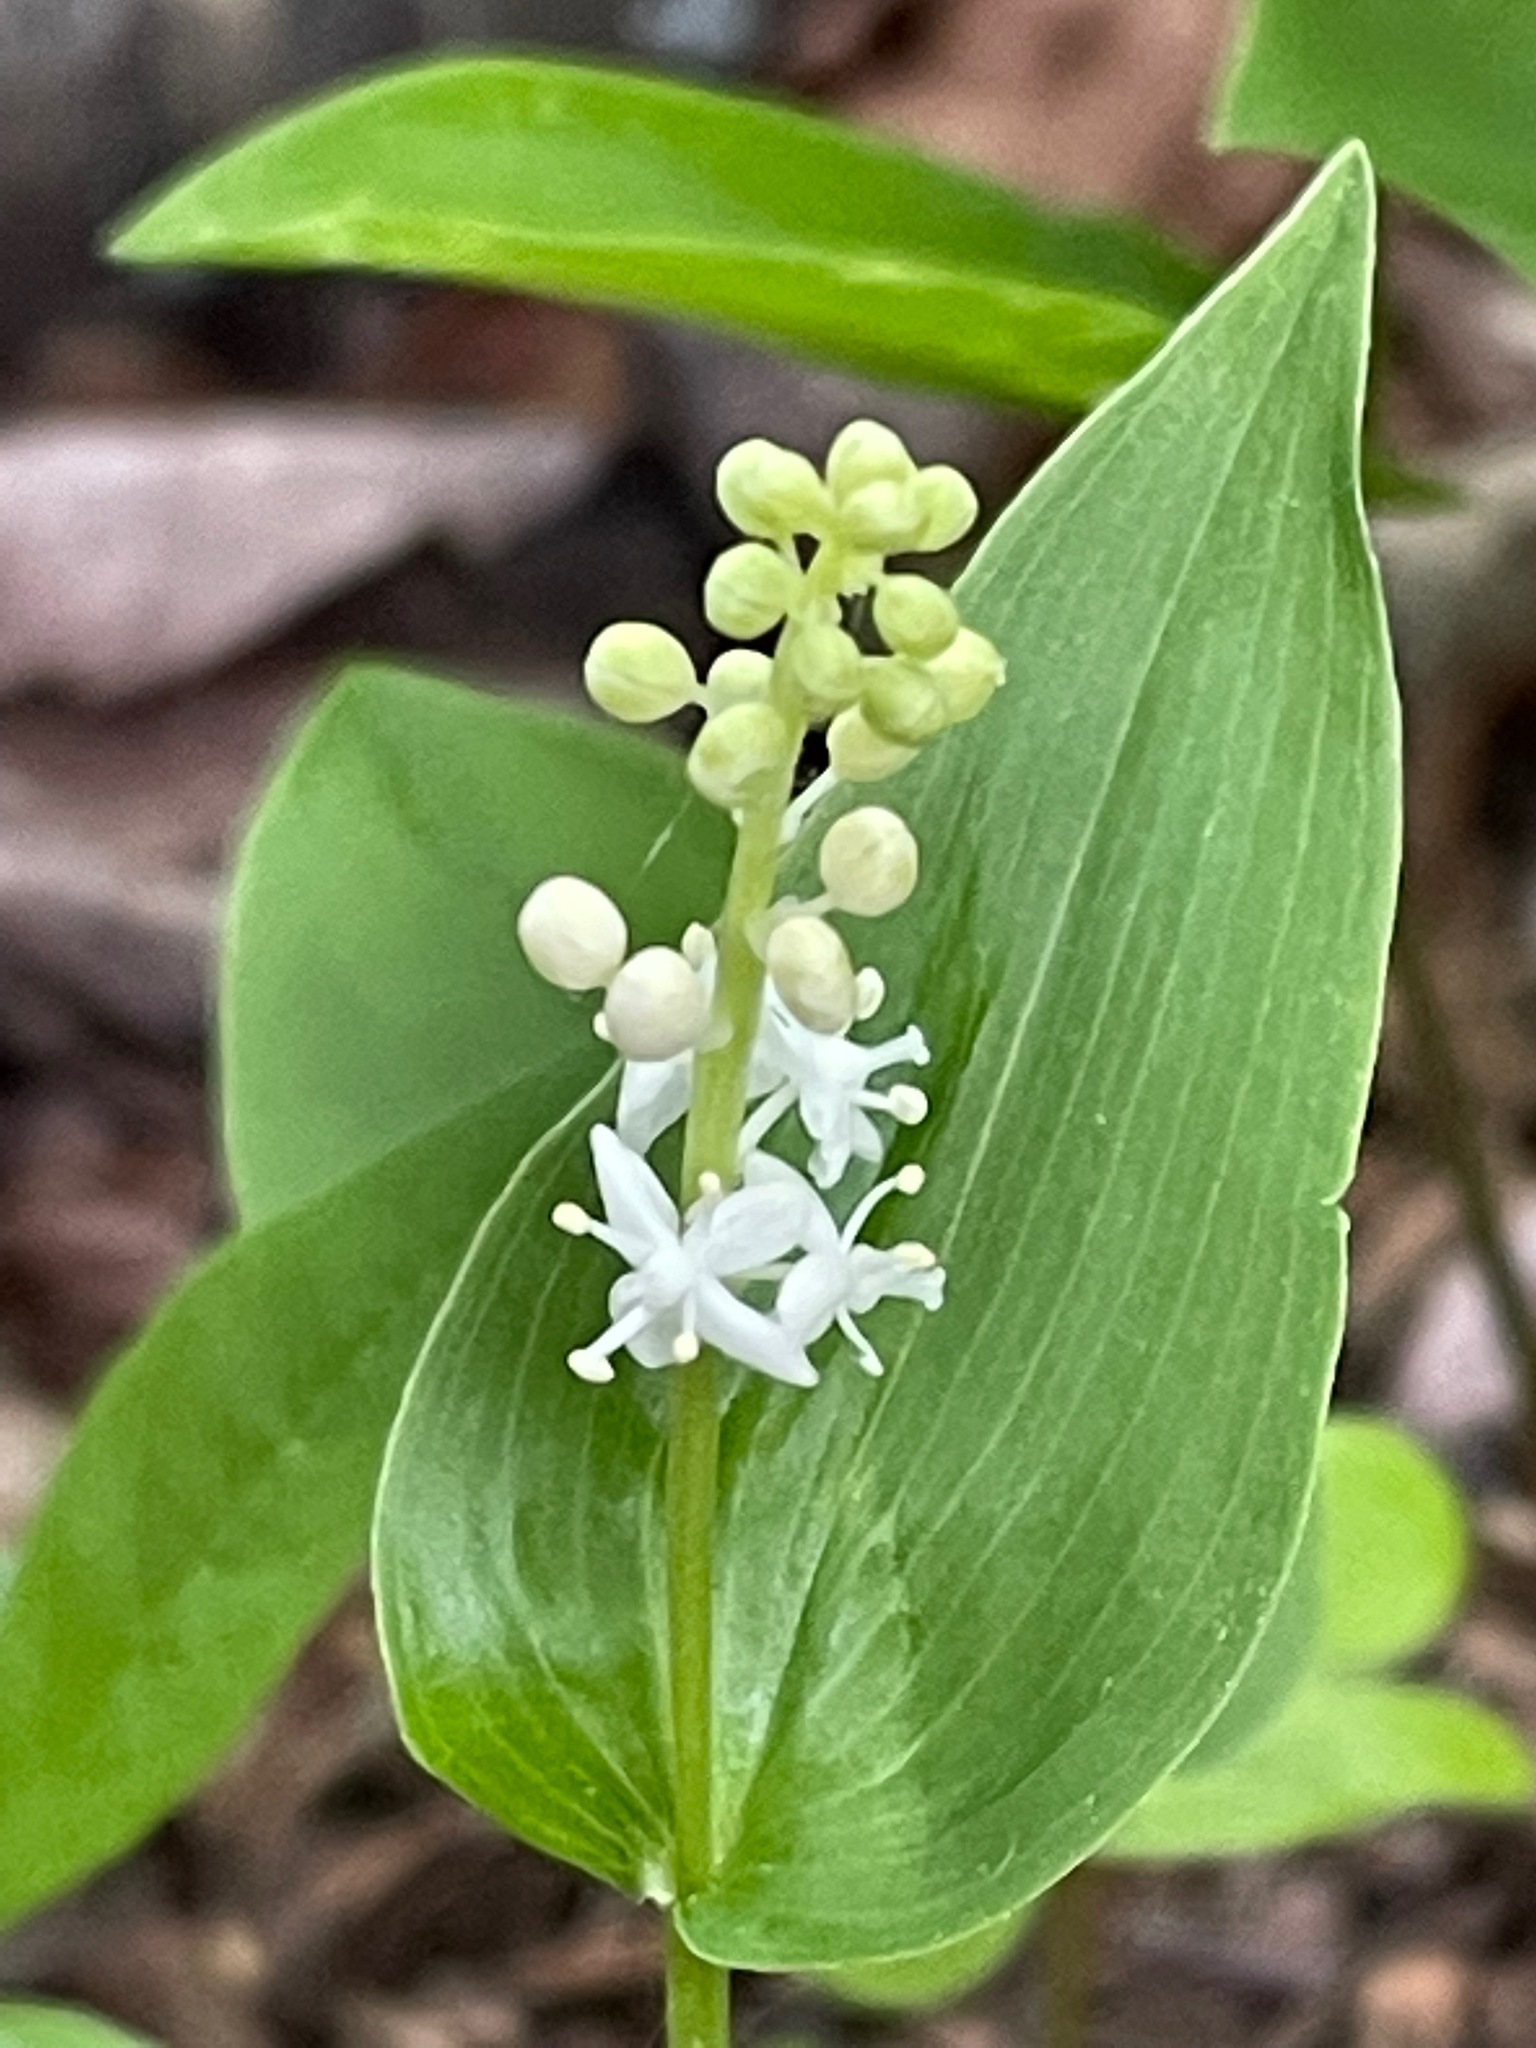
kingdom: Plantae
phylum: Tracheophyta
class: Liliopsida
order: Asparagales
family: Asparagaceae
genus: Maianthemum
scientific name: Maianthemum canadense
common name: False lily-of-the-valley
